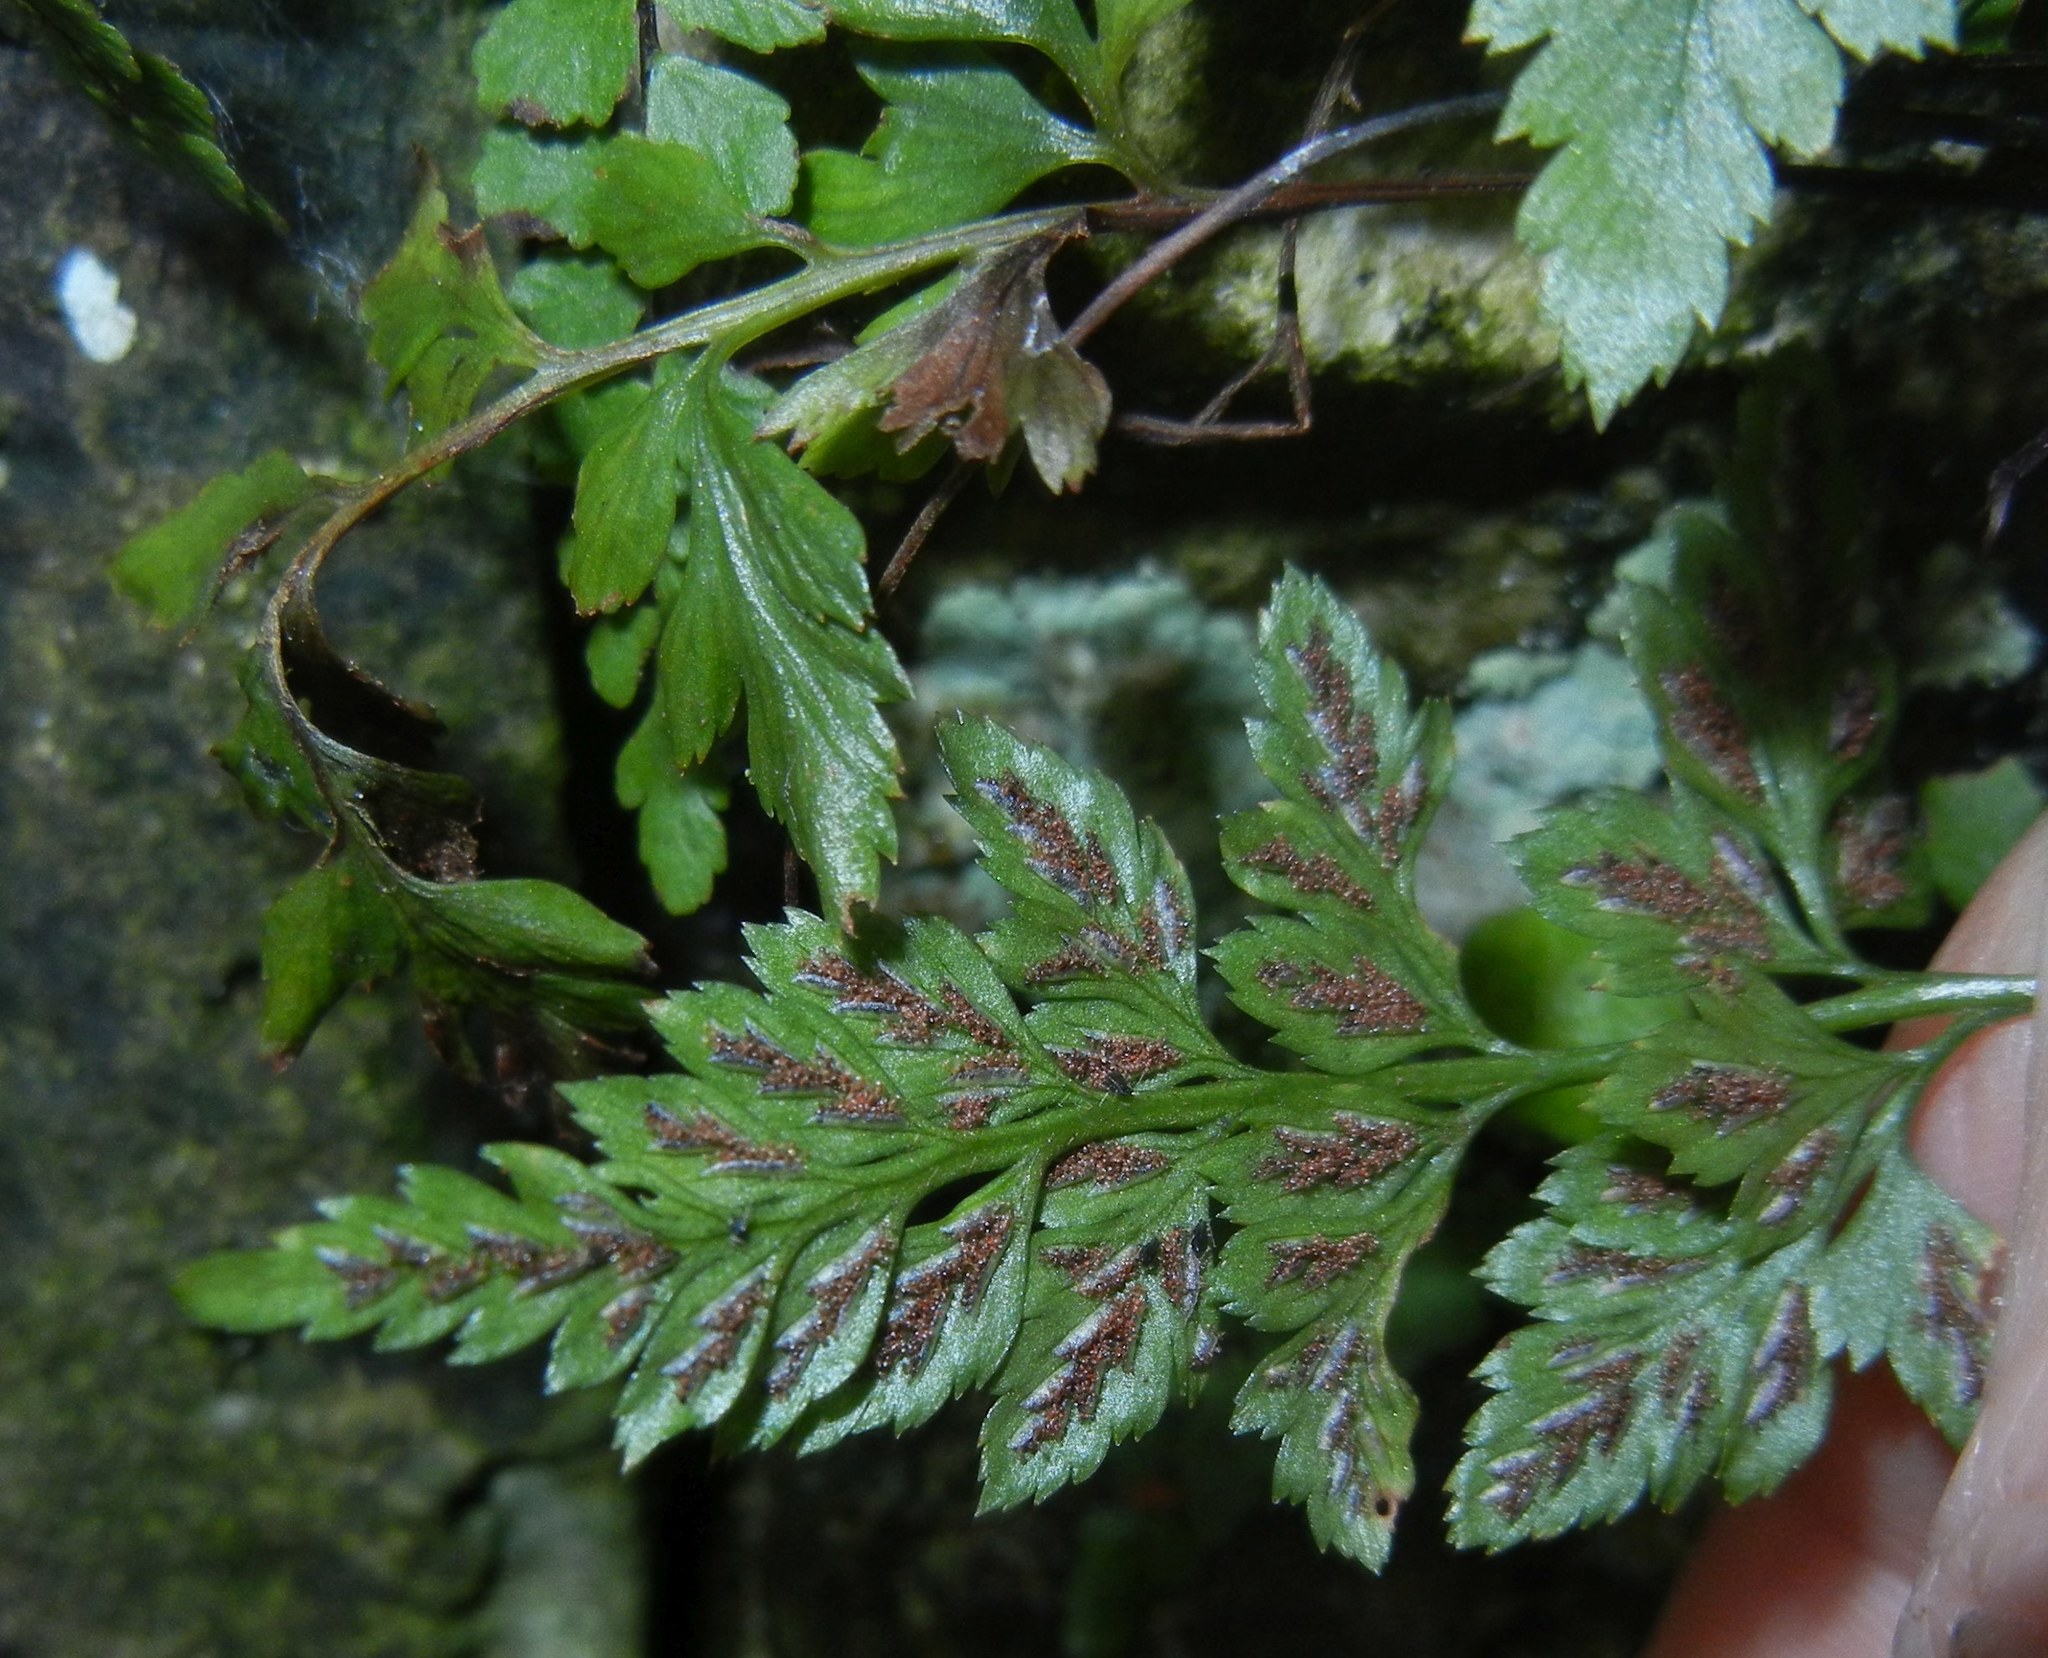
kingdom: Plantae
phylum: Tracheophyta
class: Polypodiopsida
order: Polypodiales
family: Aspleniaceae
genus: Asplenium
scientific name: Asplenium adiantum-nigrum
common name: Black spleenwort
